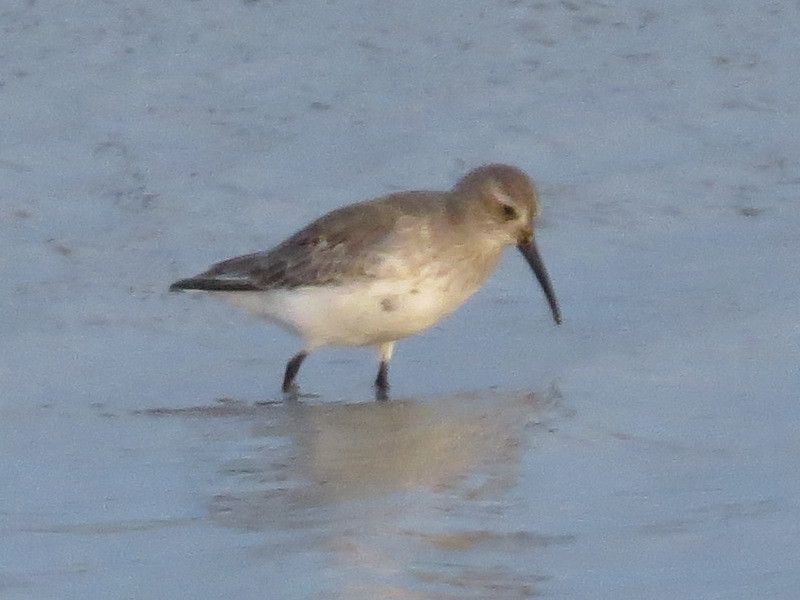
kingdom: Animalia
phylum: Chordata
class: Aves
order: Charadriiformes
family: Scolopacidae
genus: Calidris
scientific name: Calidris alpina
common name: Dunlin
